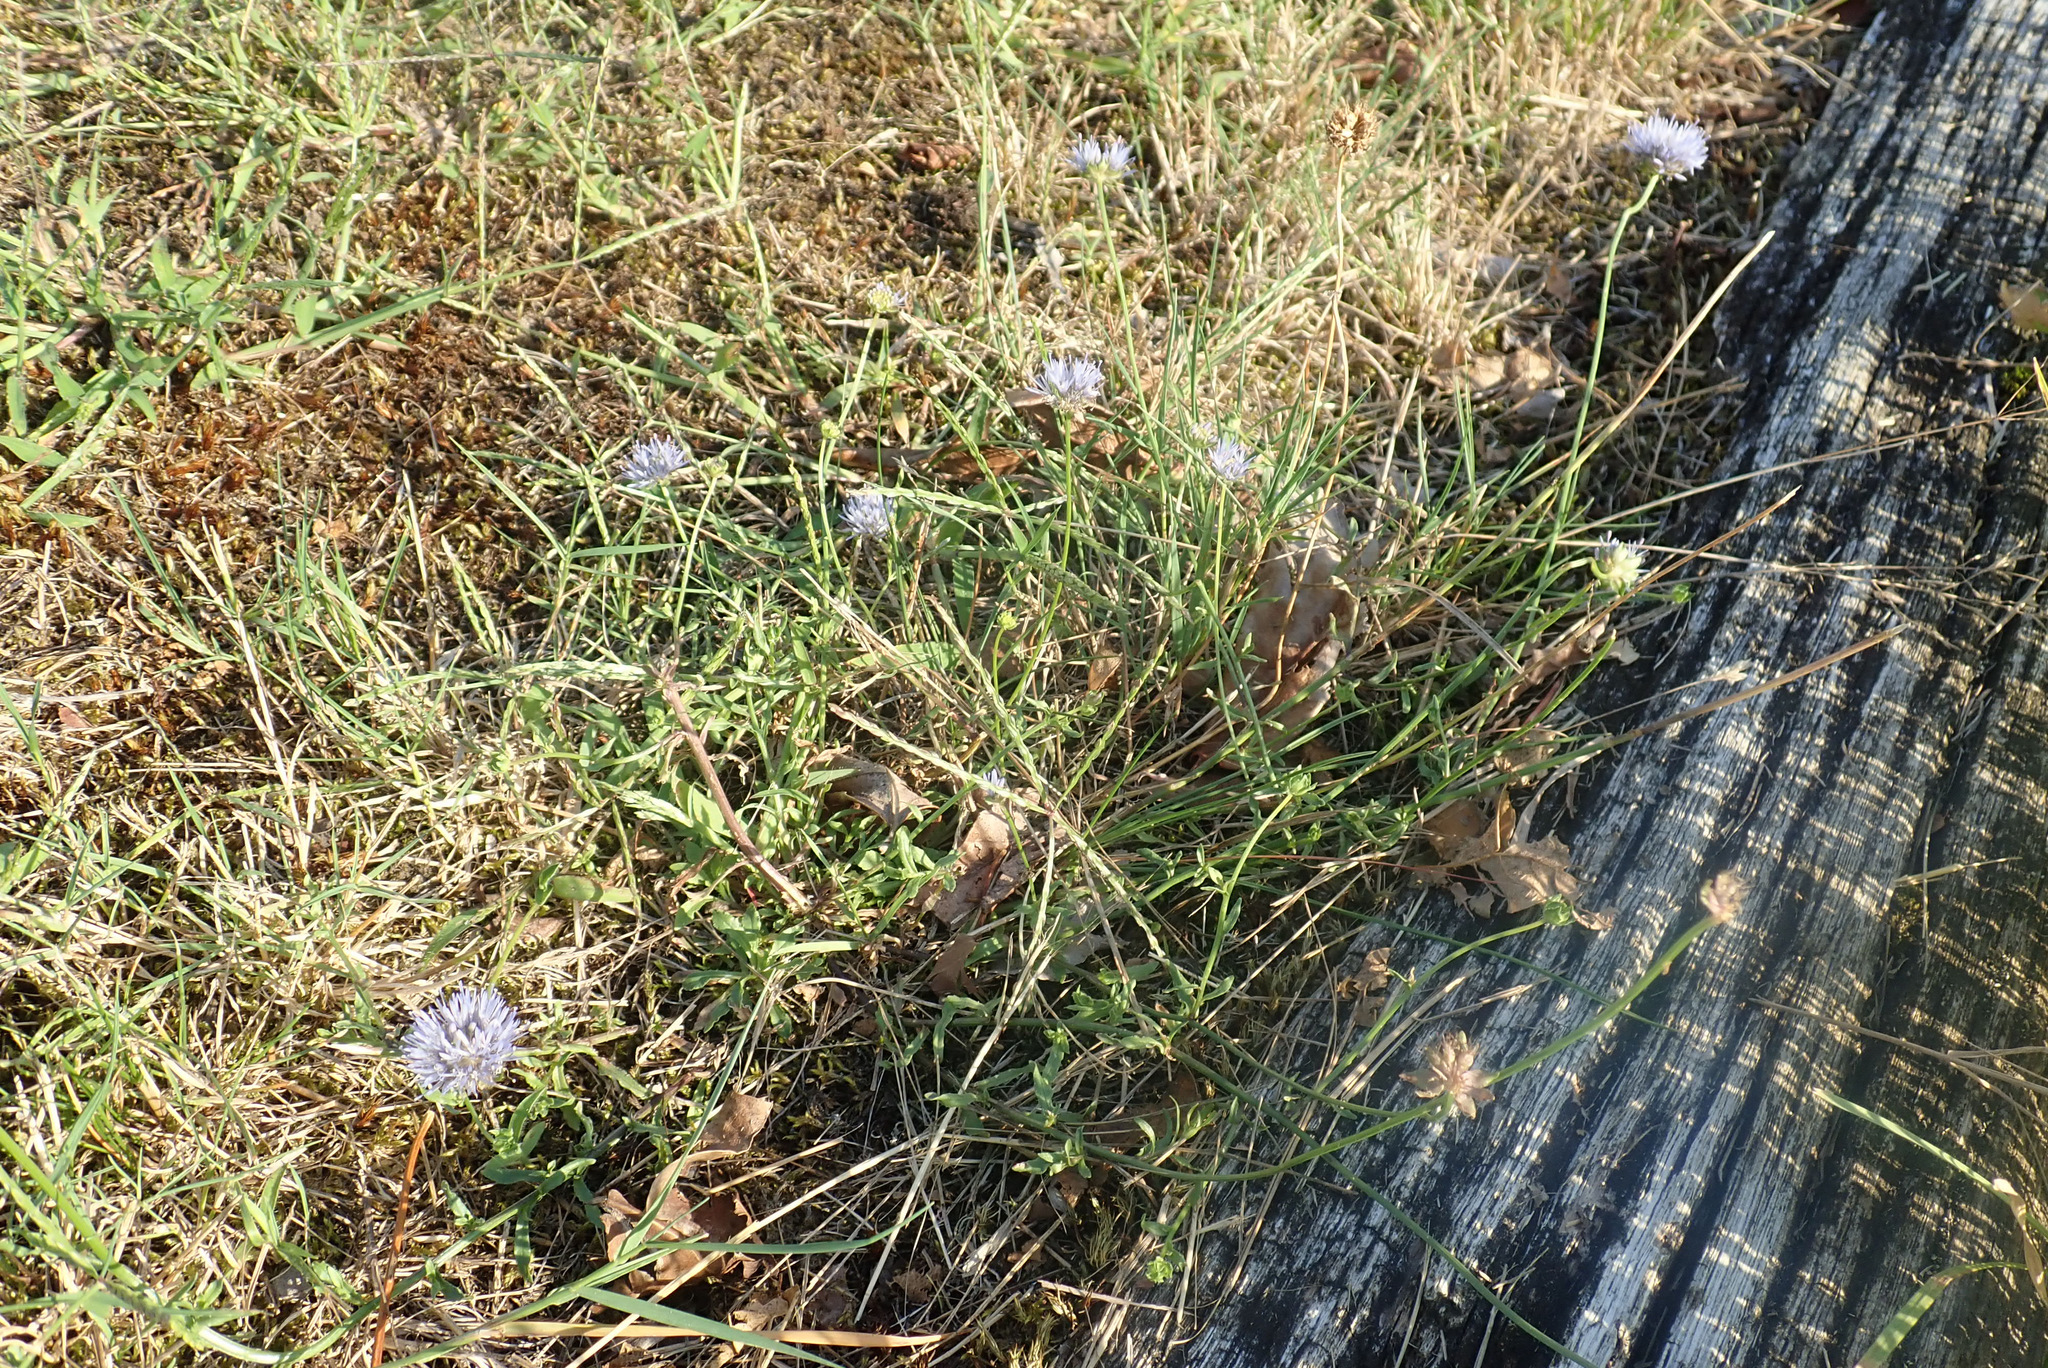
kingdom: Plantae
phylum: Tracheophyta
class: Magnoliopsida
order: Asterales
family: Campanulaceae
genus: Jasione
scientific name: Jasione montana
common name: Sheep's-bit
